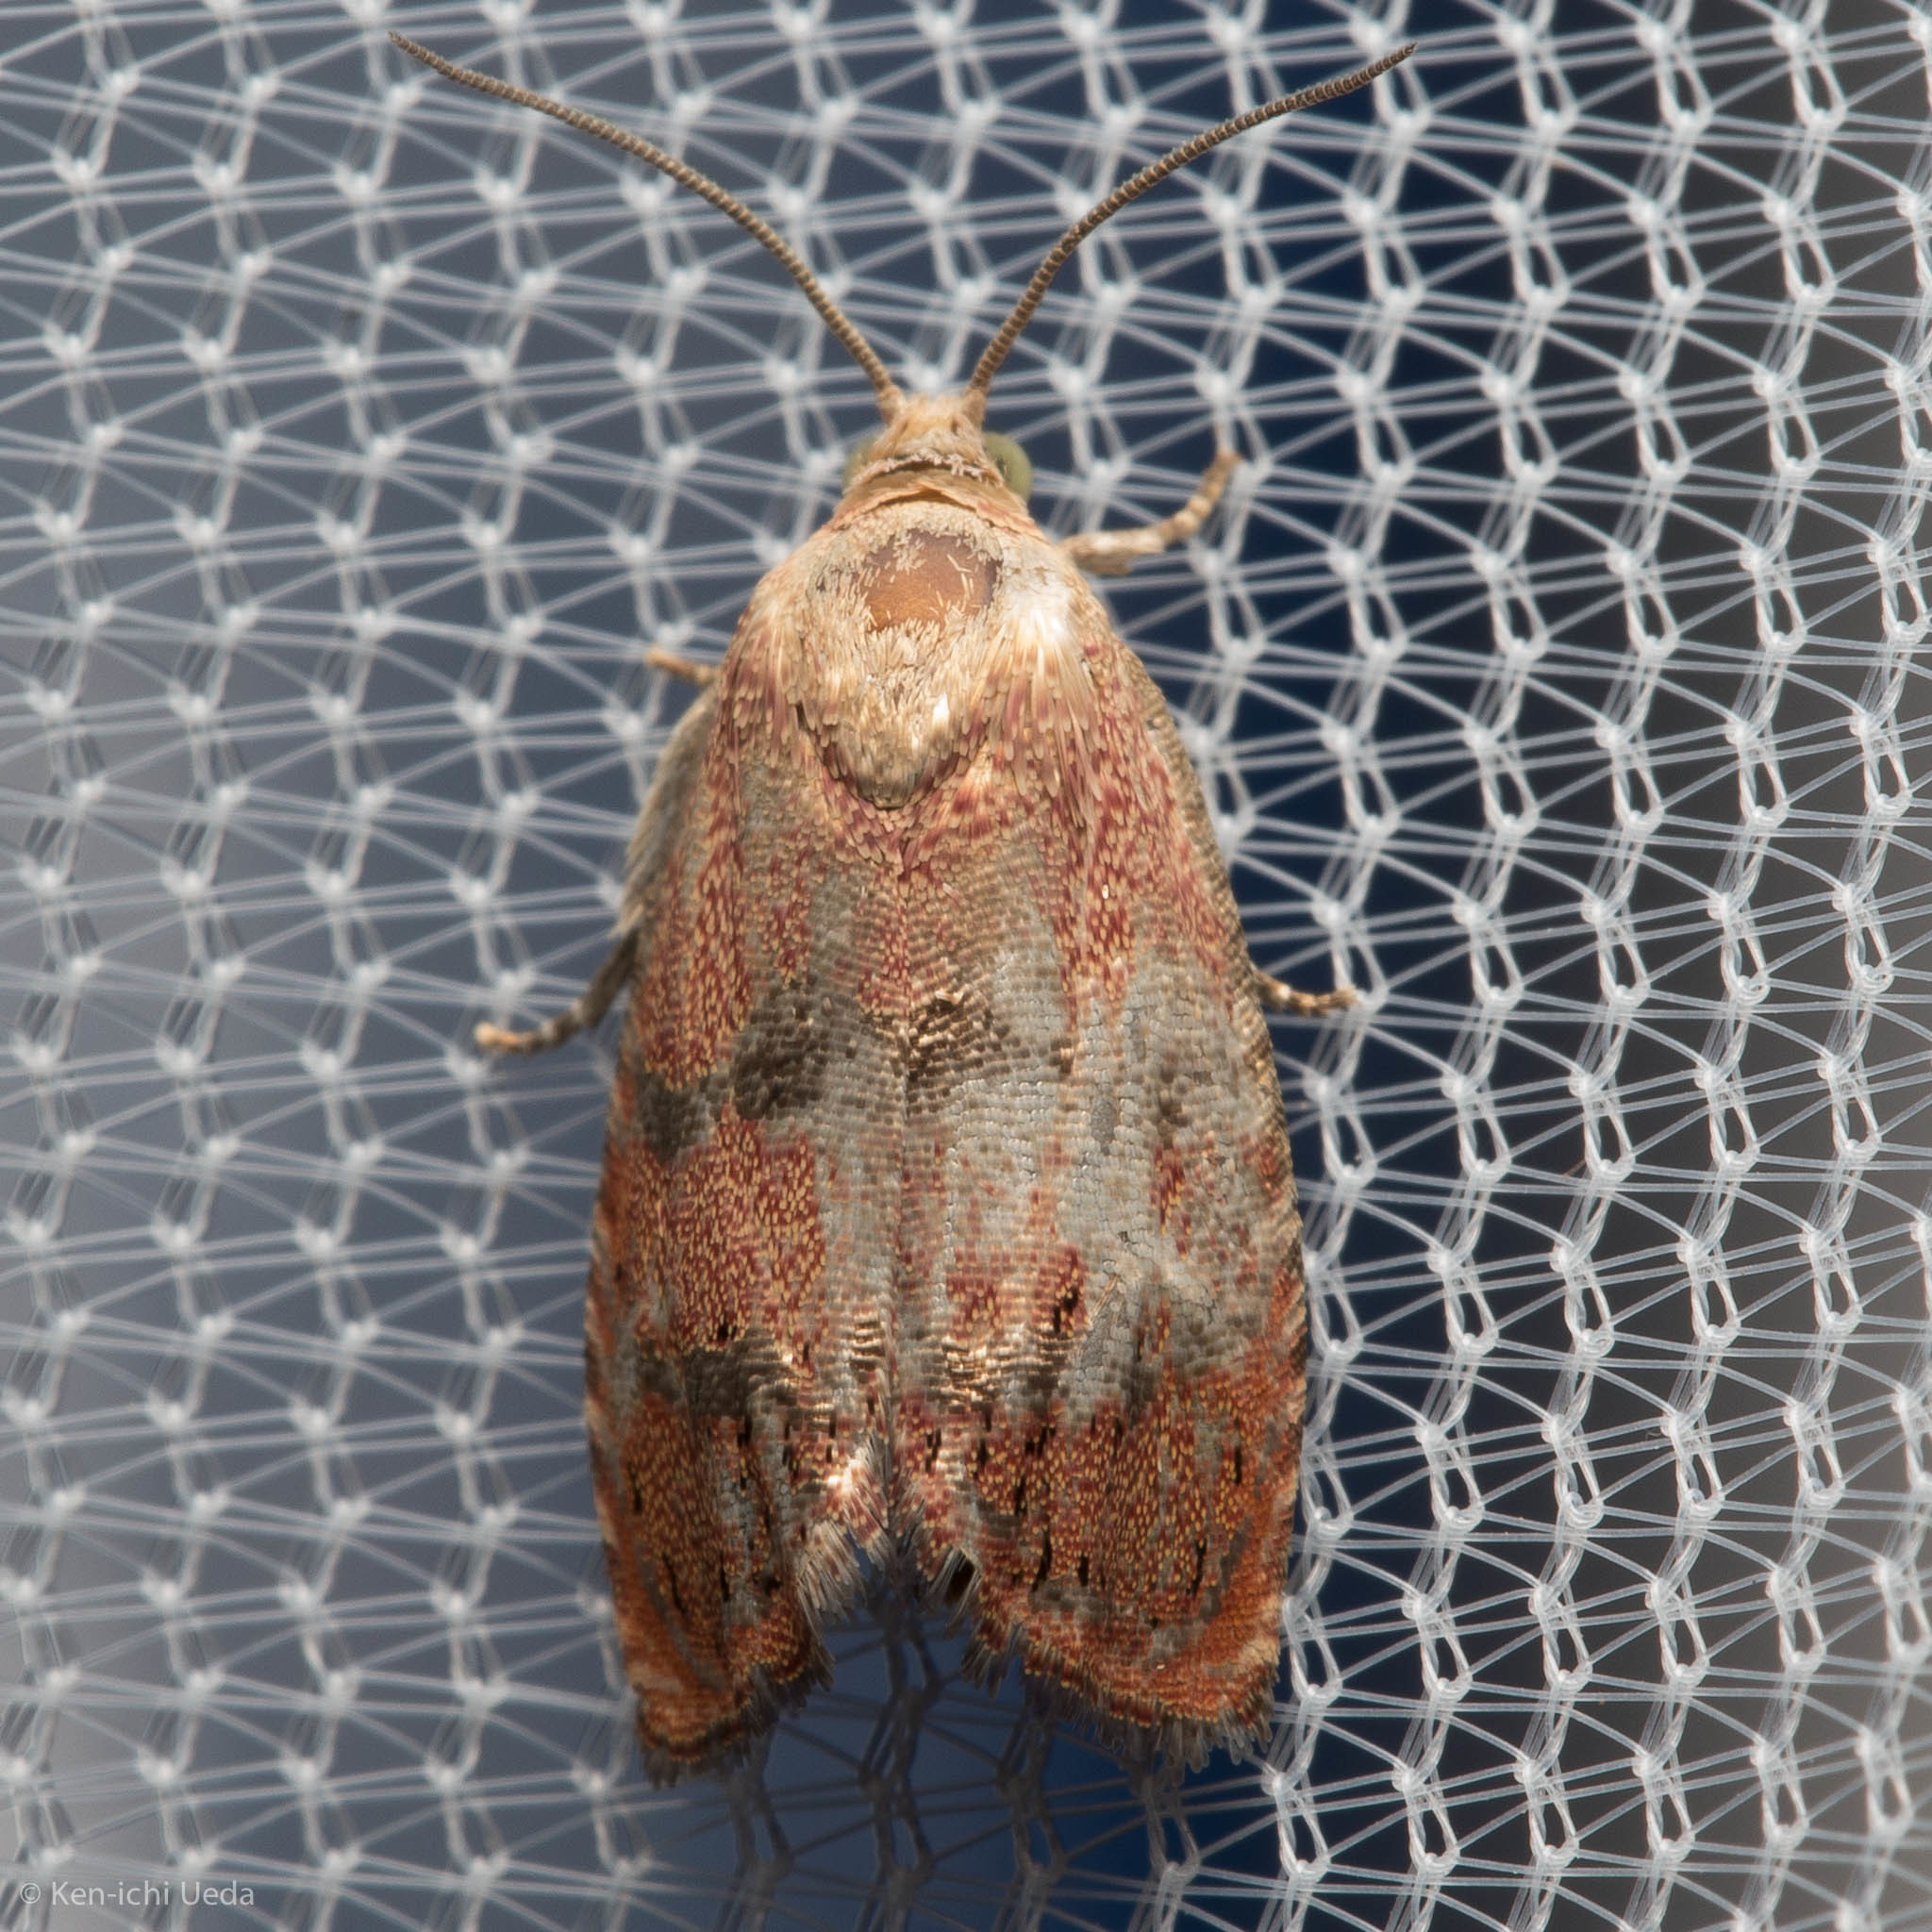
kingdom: Animalia
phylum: Arthropoda
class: Insecta
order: Lepidoptera
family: Tortricidae
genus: Cydia
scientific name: Cydia latiferreana
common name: Filbertworm moth
